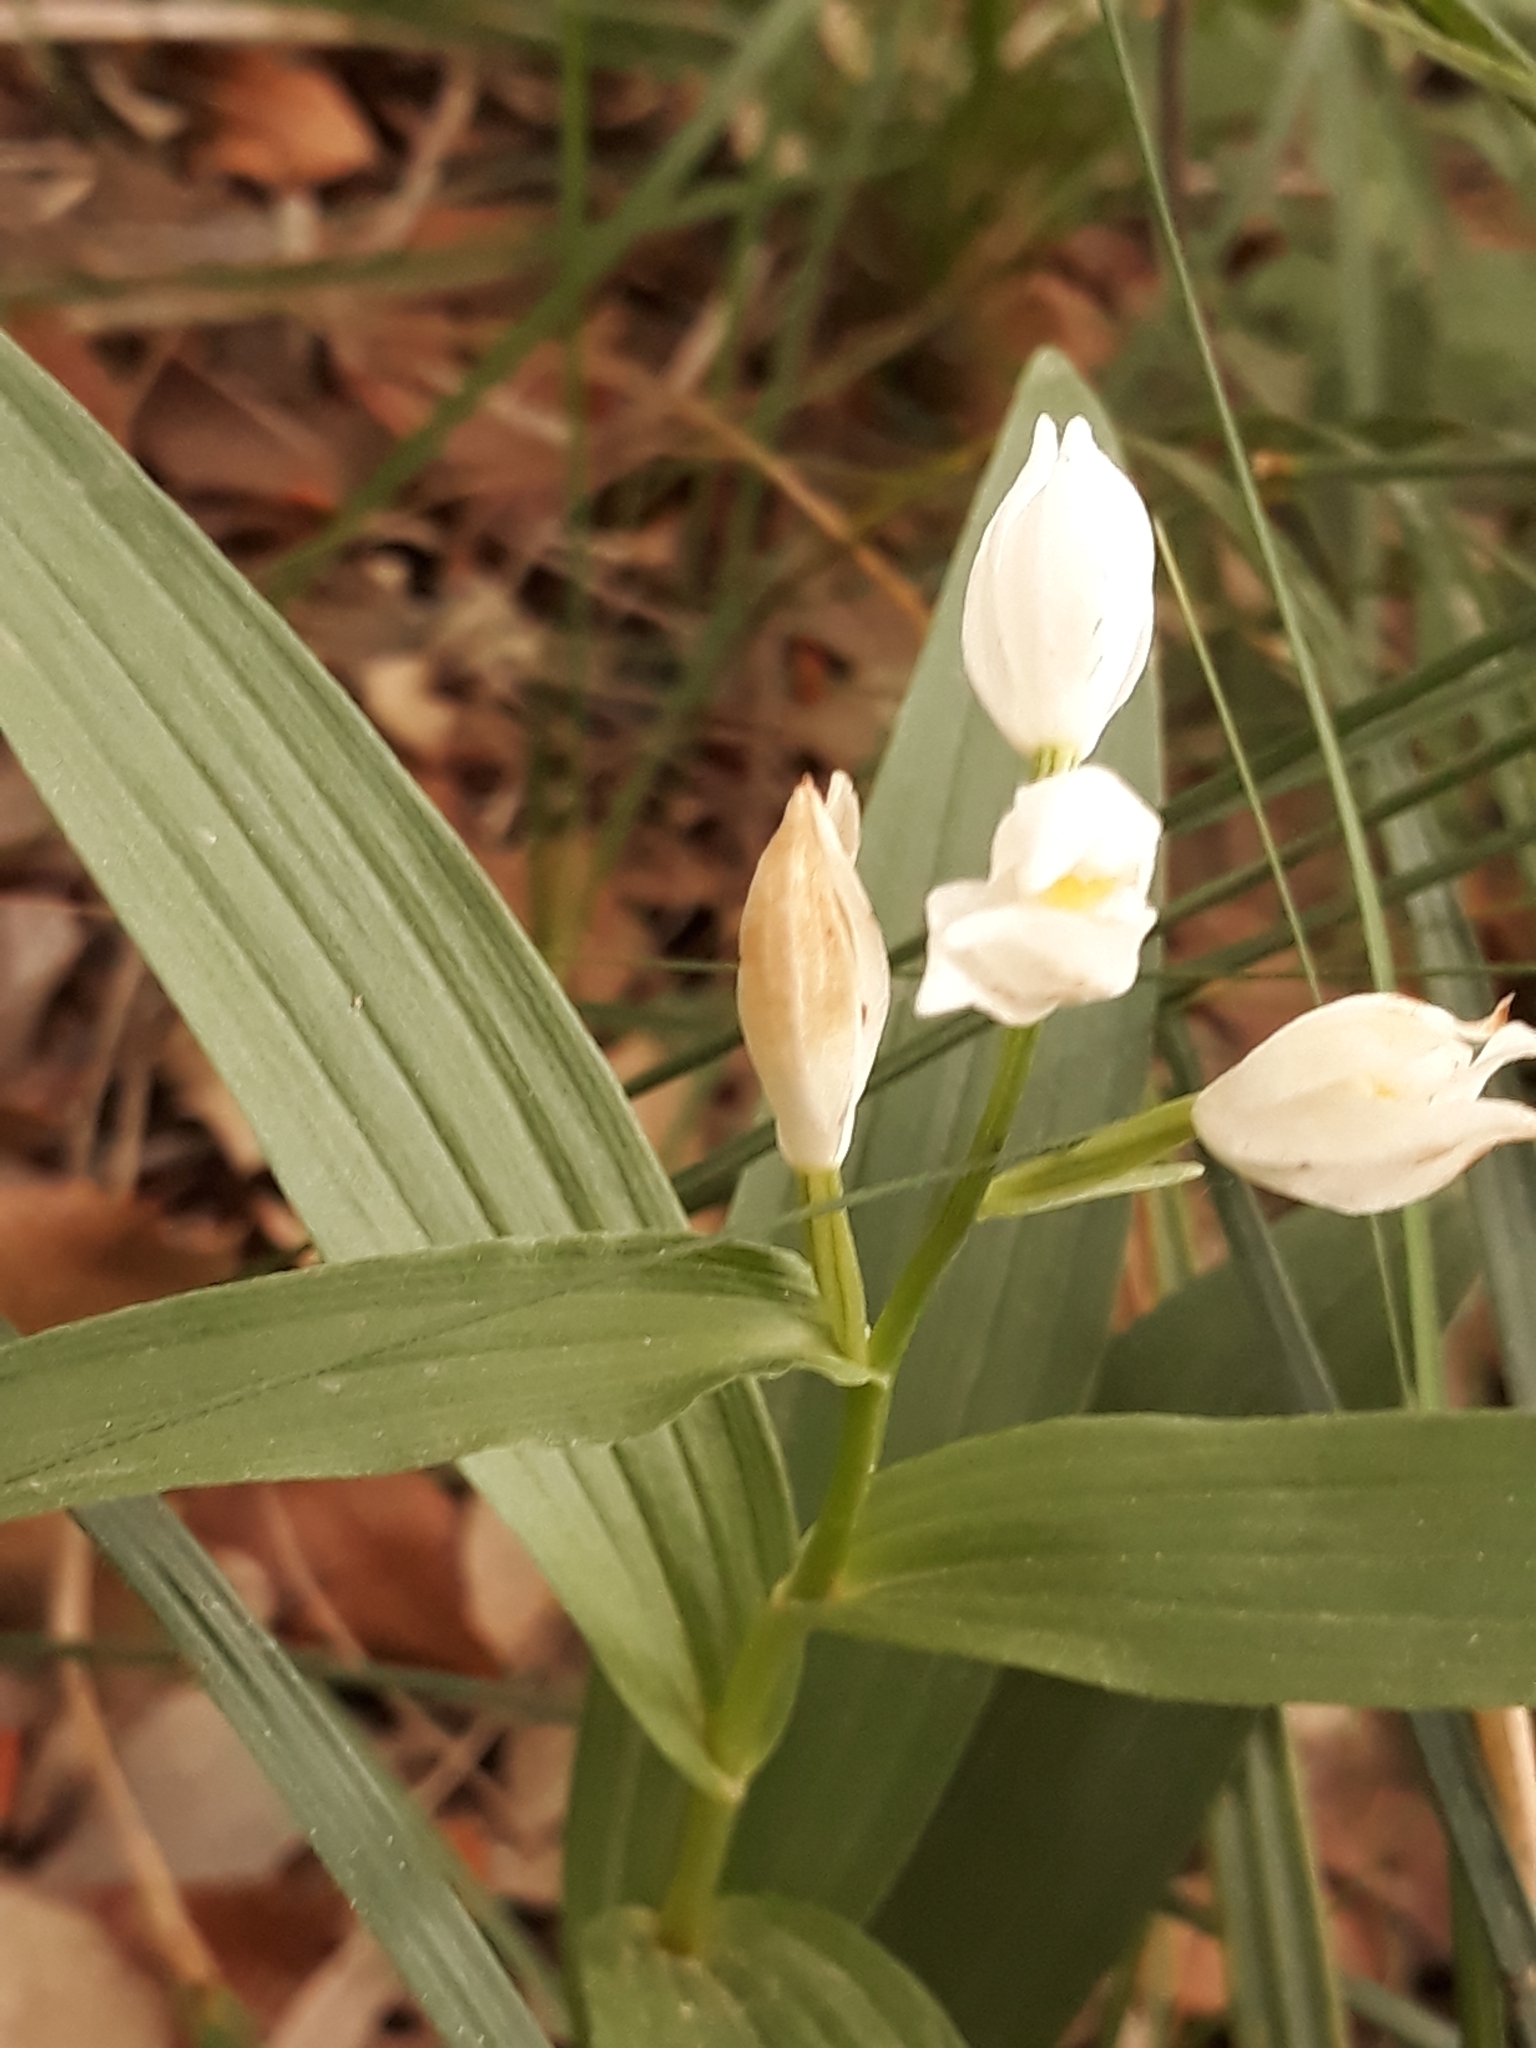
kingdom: Plantae
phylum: Tracheophyta
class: Liliopsida
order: Asparagales
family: Orchidaceae
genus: Cephalanthera
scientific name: Cephalanthera longifolia
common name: Narrow-leaved helleborine
